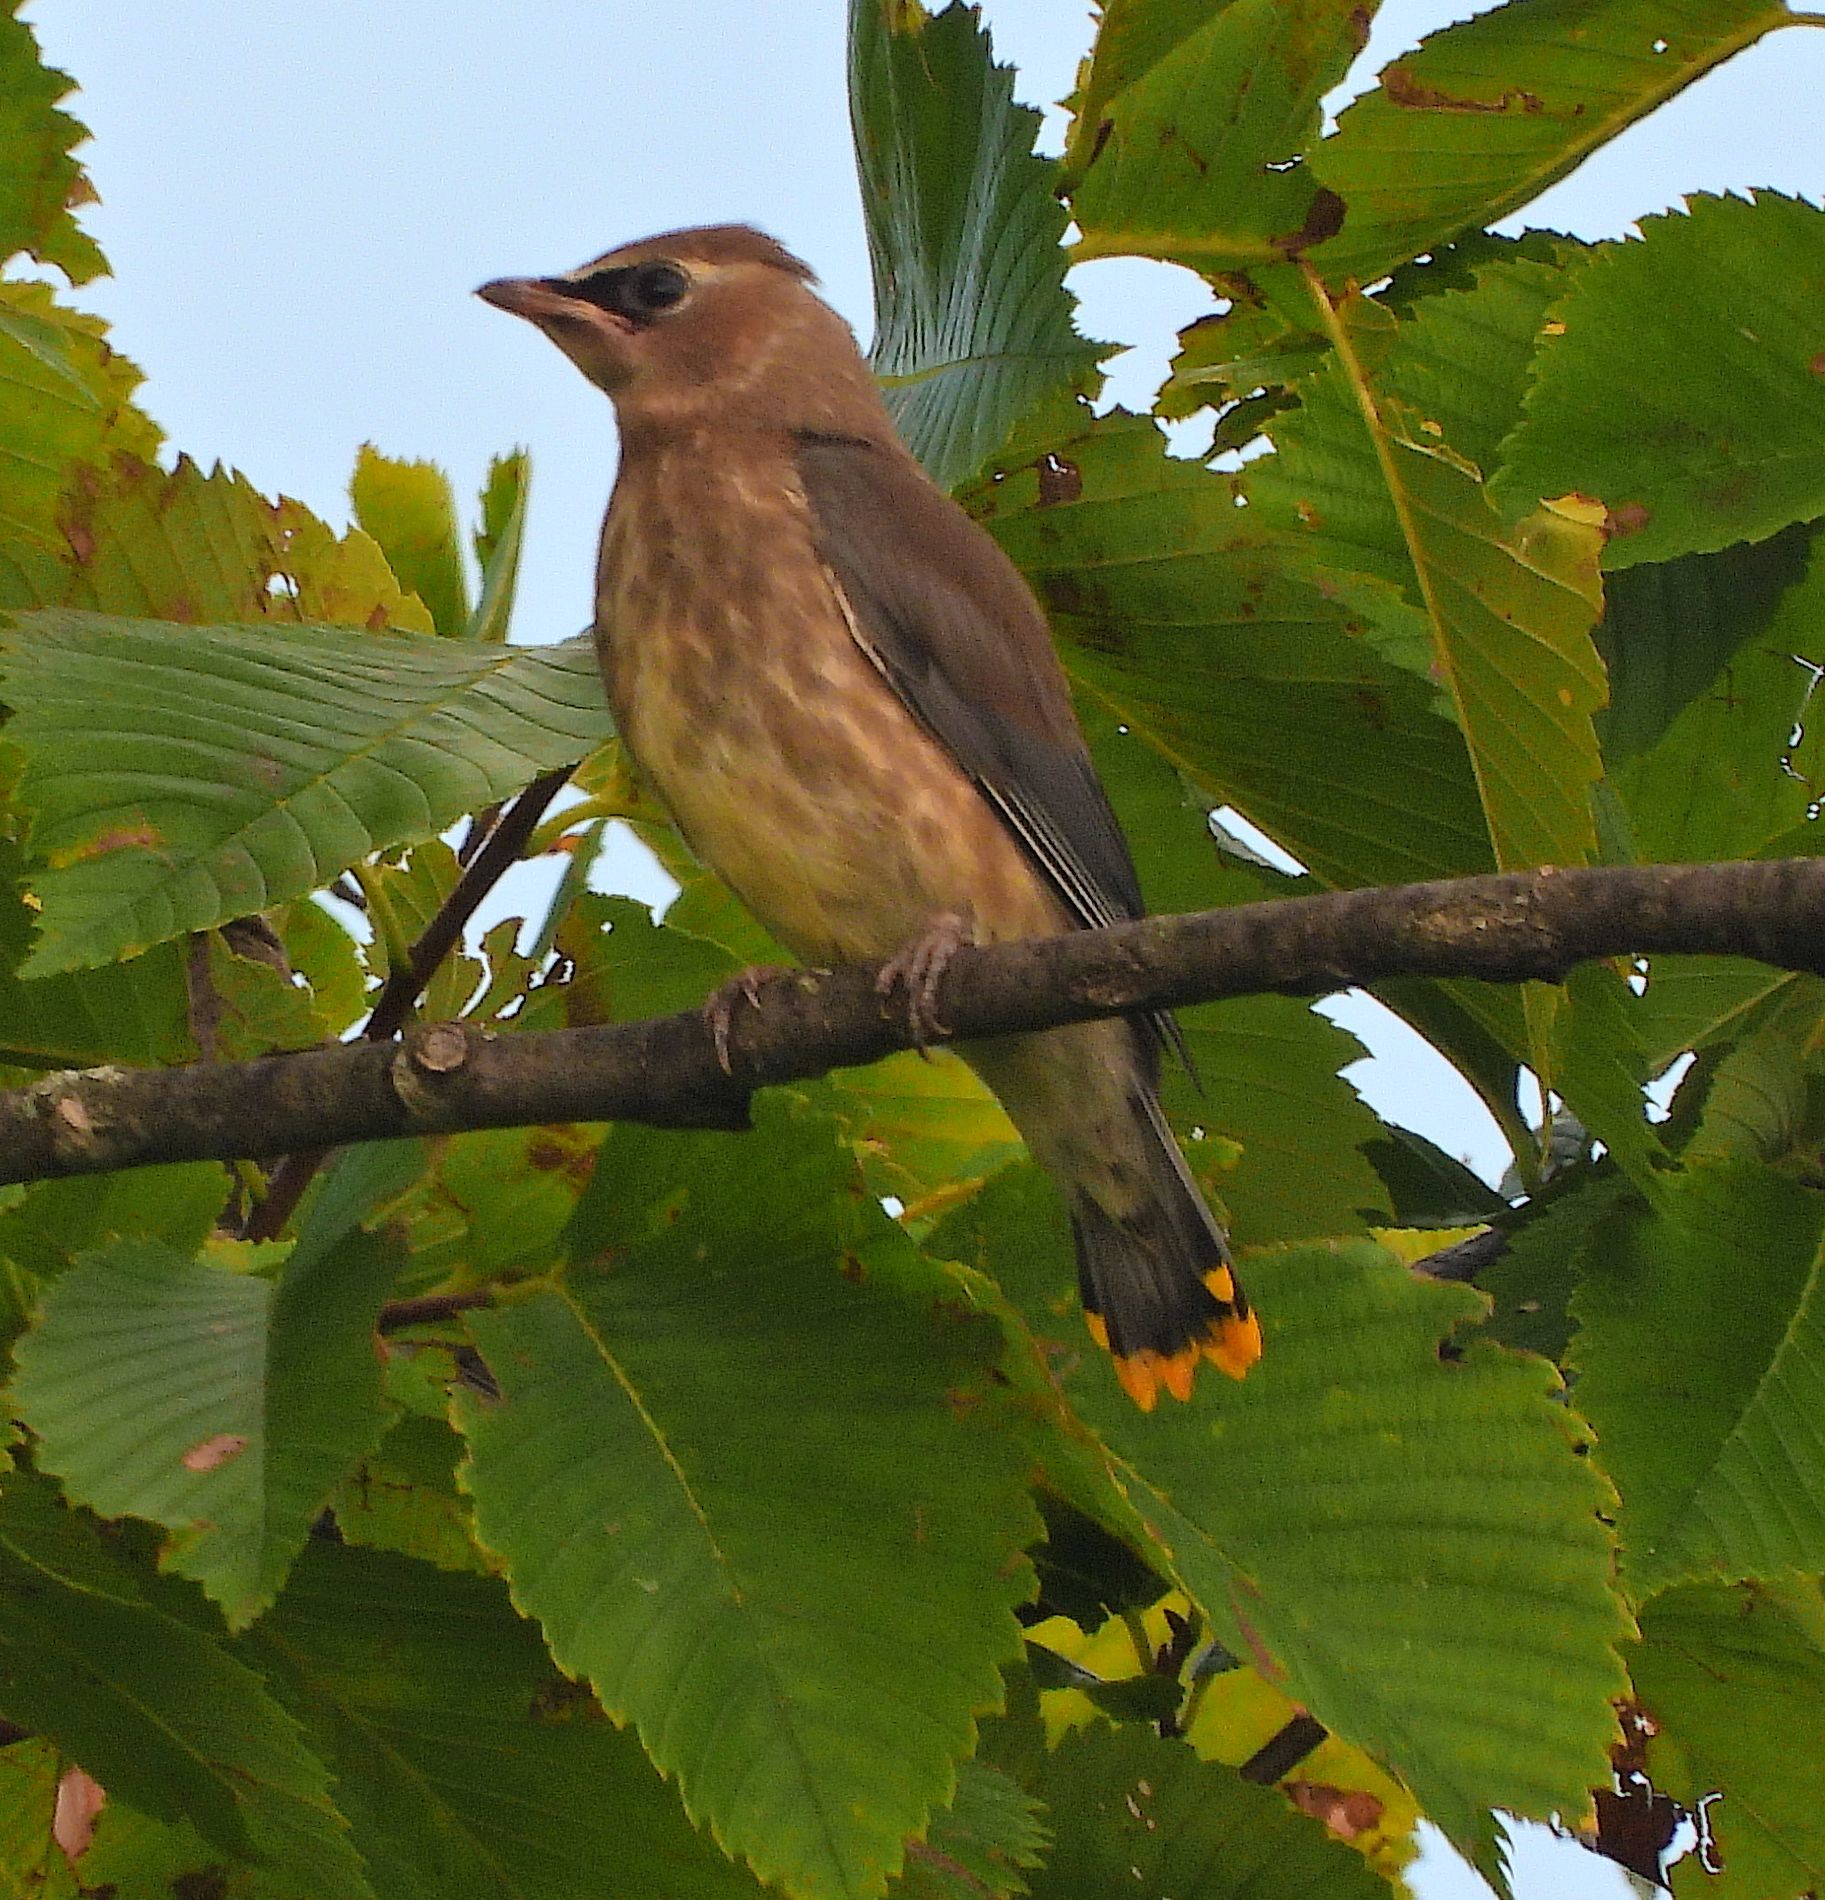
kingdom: Animalia
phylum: Chordata
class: Aves
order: Passeriformes
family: Bombycillidae
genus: Bombycilla
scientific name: Bombycilla cedrorum
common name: Cedar waxwing
